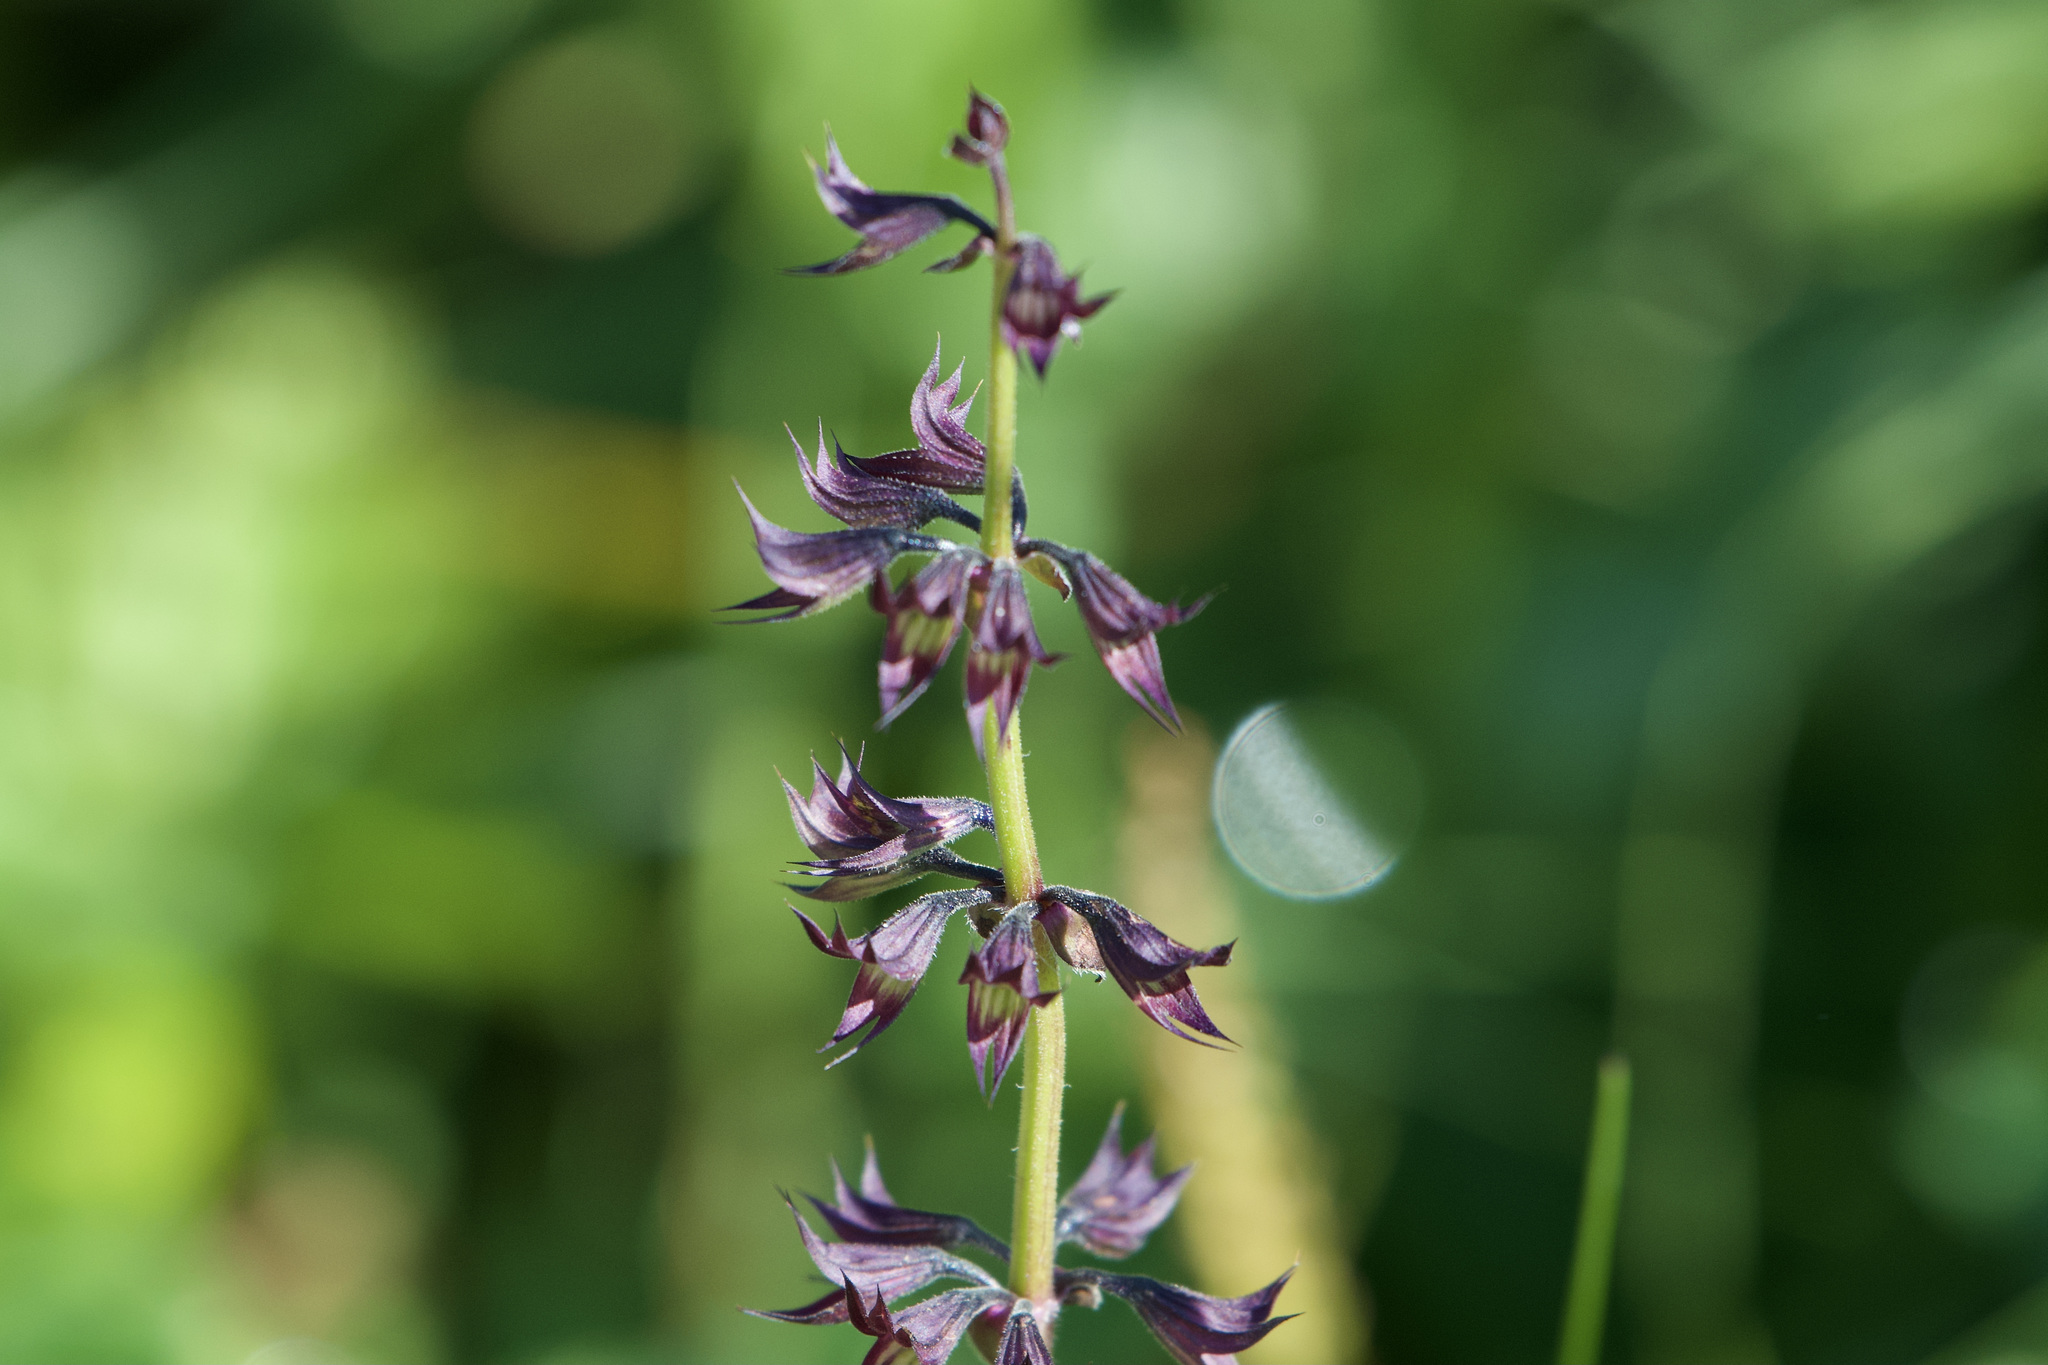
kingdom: Plantae
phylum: Tracheophyta
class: Magnoliopsida
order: Lamiales
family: Lamiaceae
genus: Horminum
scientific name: Horminum pyrenaicum
